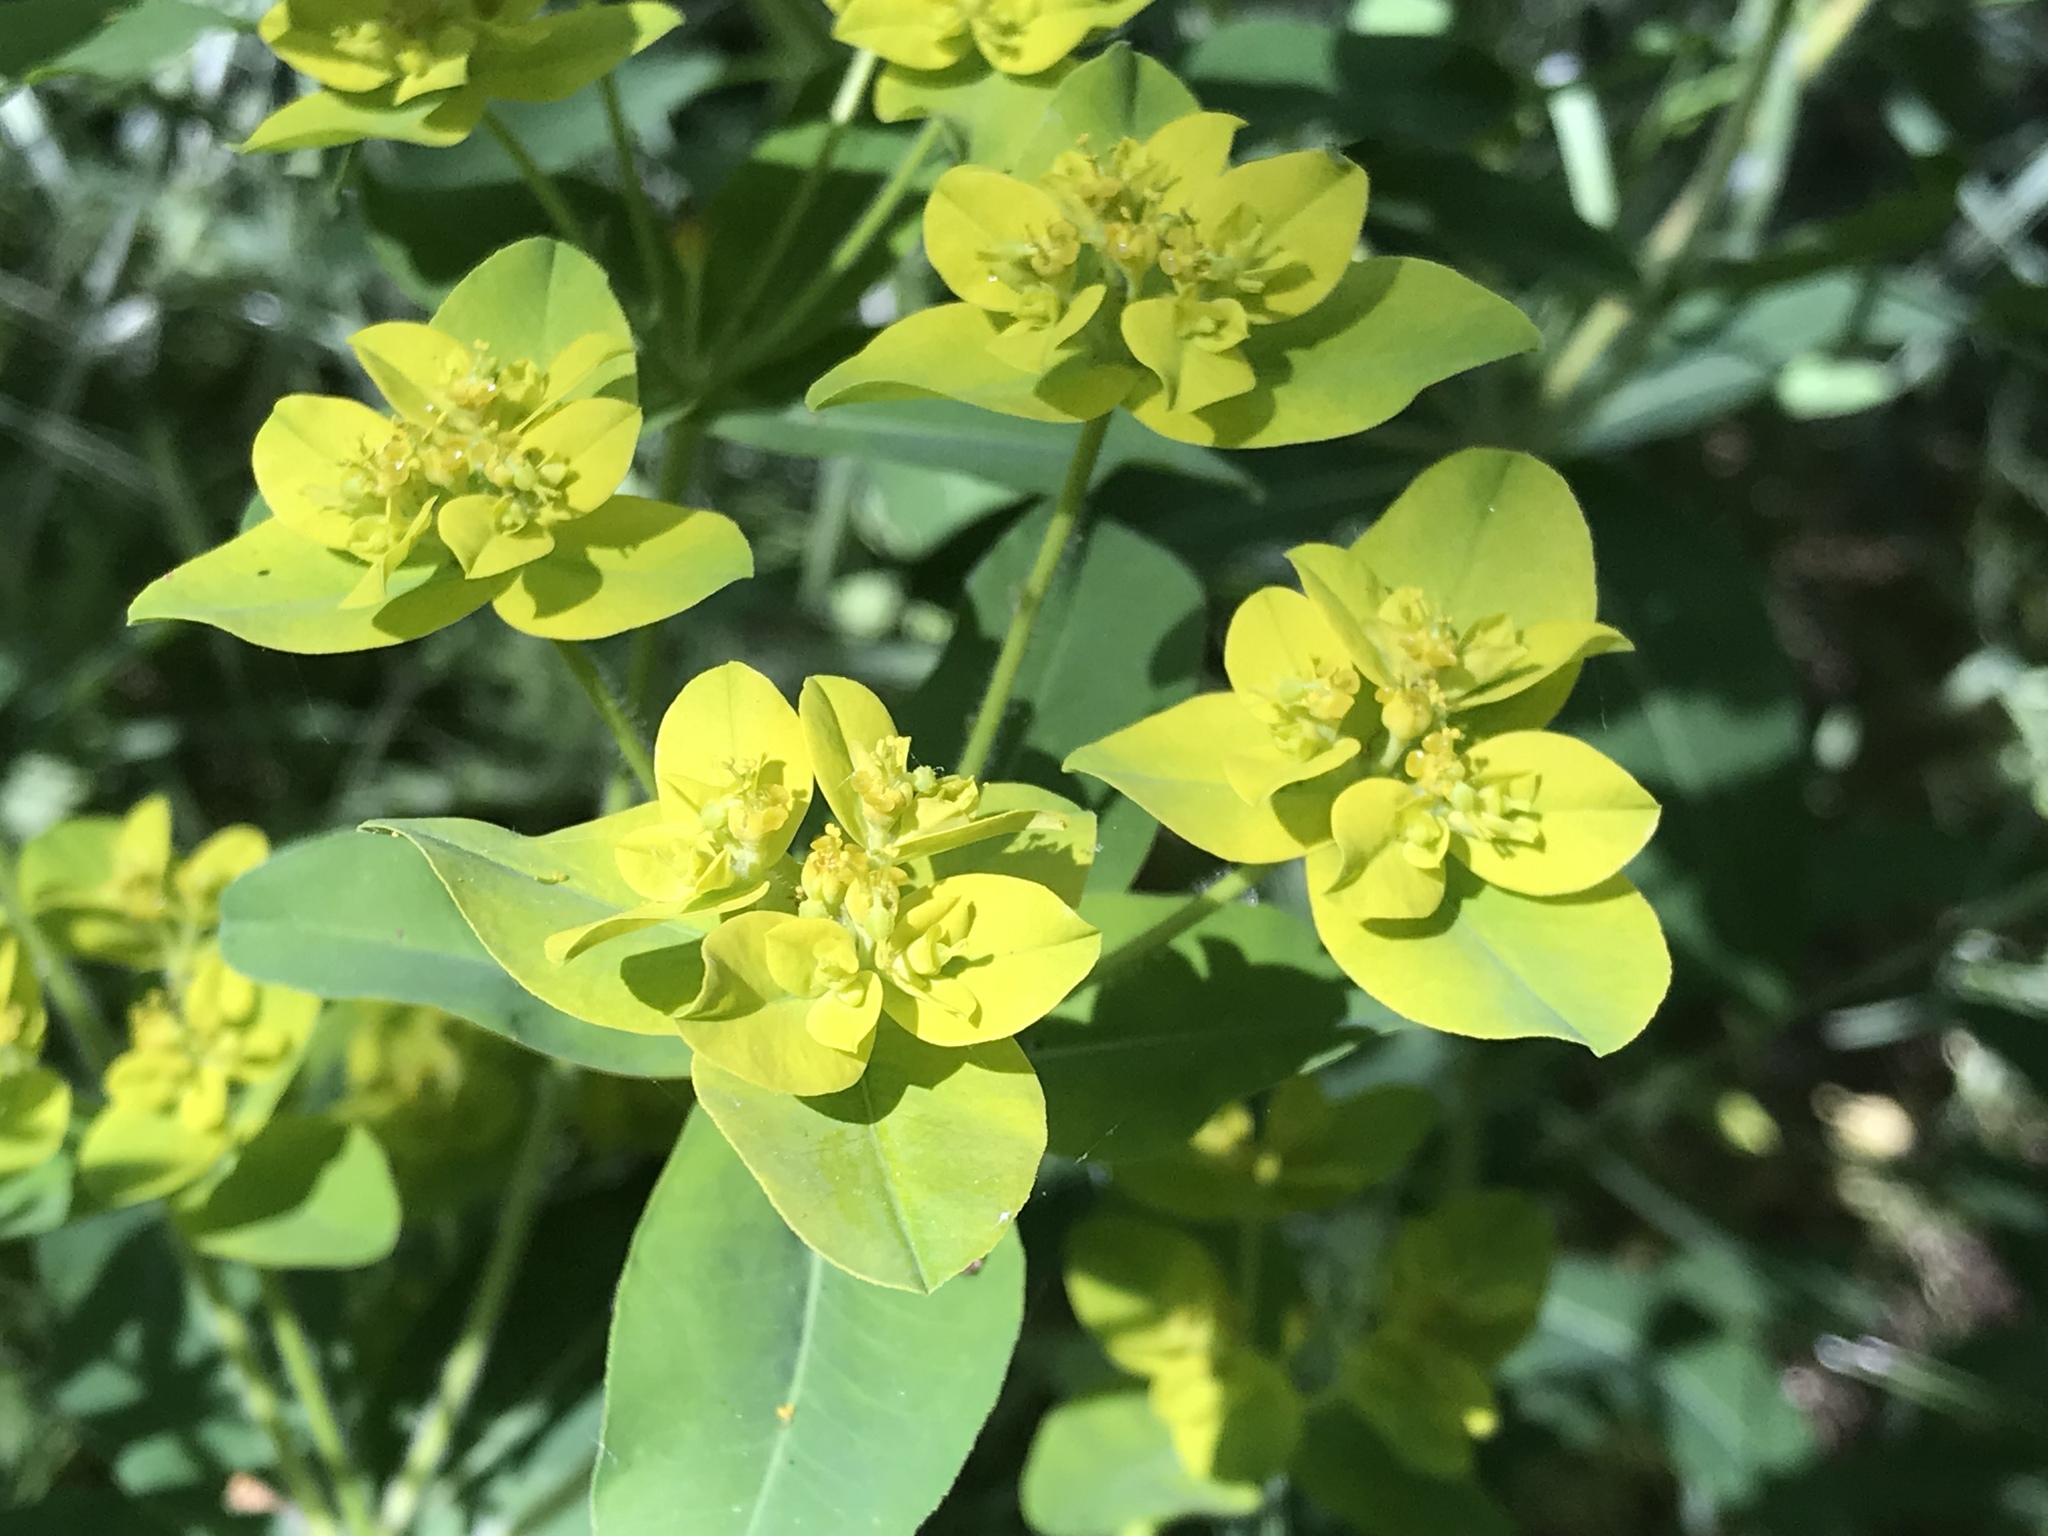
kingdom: Plantae
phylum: Tracheophyta
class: Magnoliopsida
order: Malpighiales
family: Euphorbiaceae
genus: Euphorbia
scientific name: Euphorbia oblongata
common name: Balkan spurge
